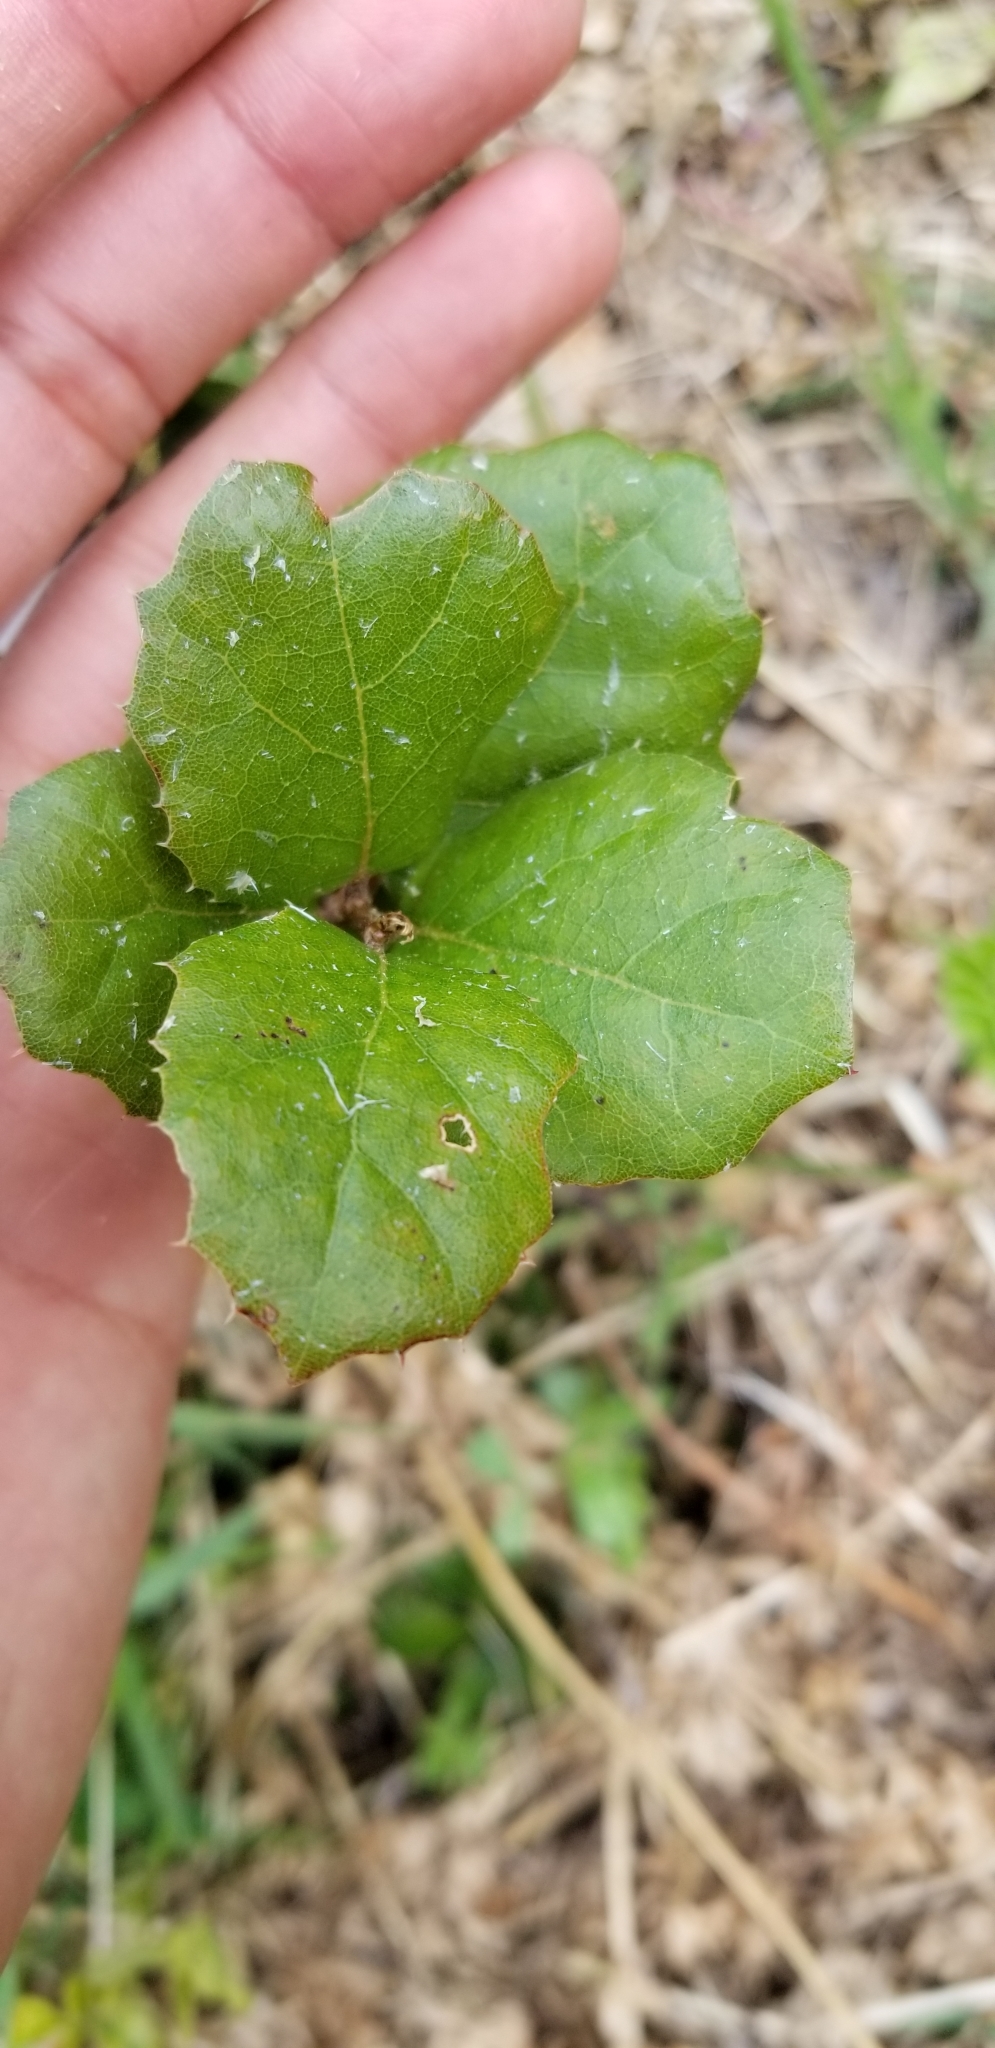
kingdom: Plantae
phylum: Tracheophyta
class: Magnoliopsida
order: Fagales
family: Fagaceae
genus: Quercus
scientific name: Quercus agrifolia
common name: California live oak
